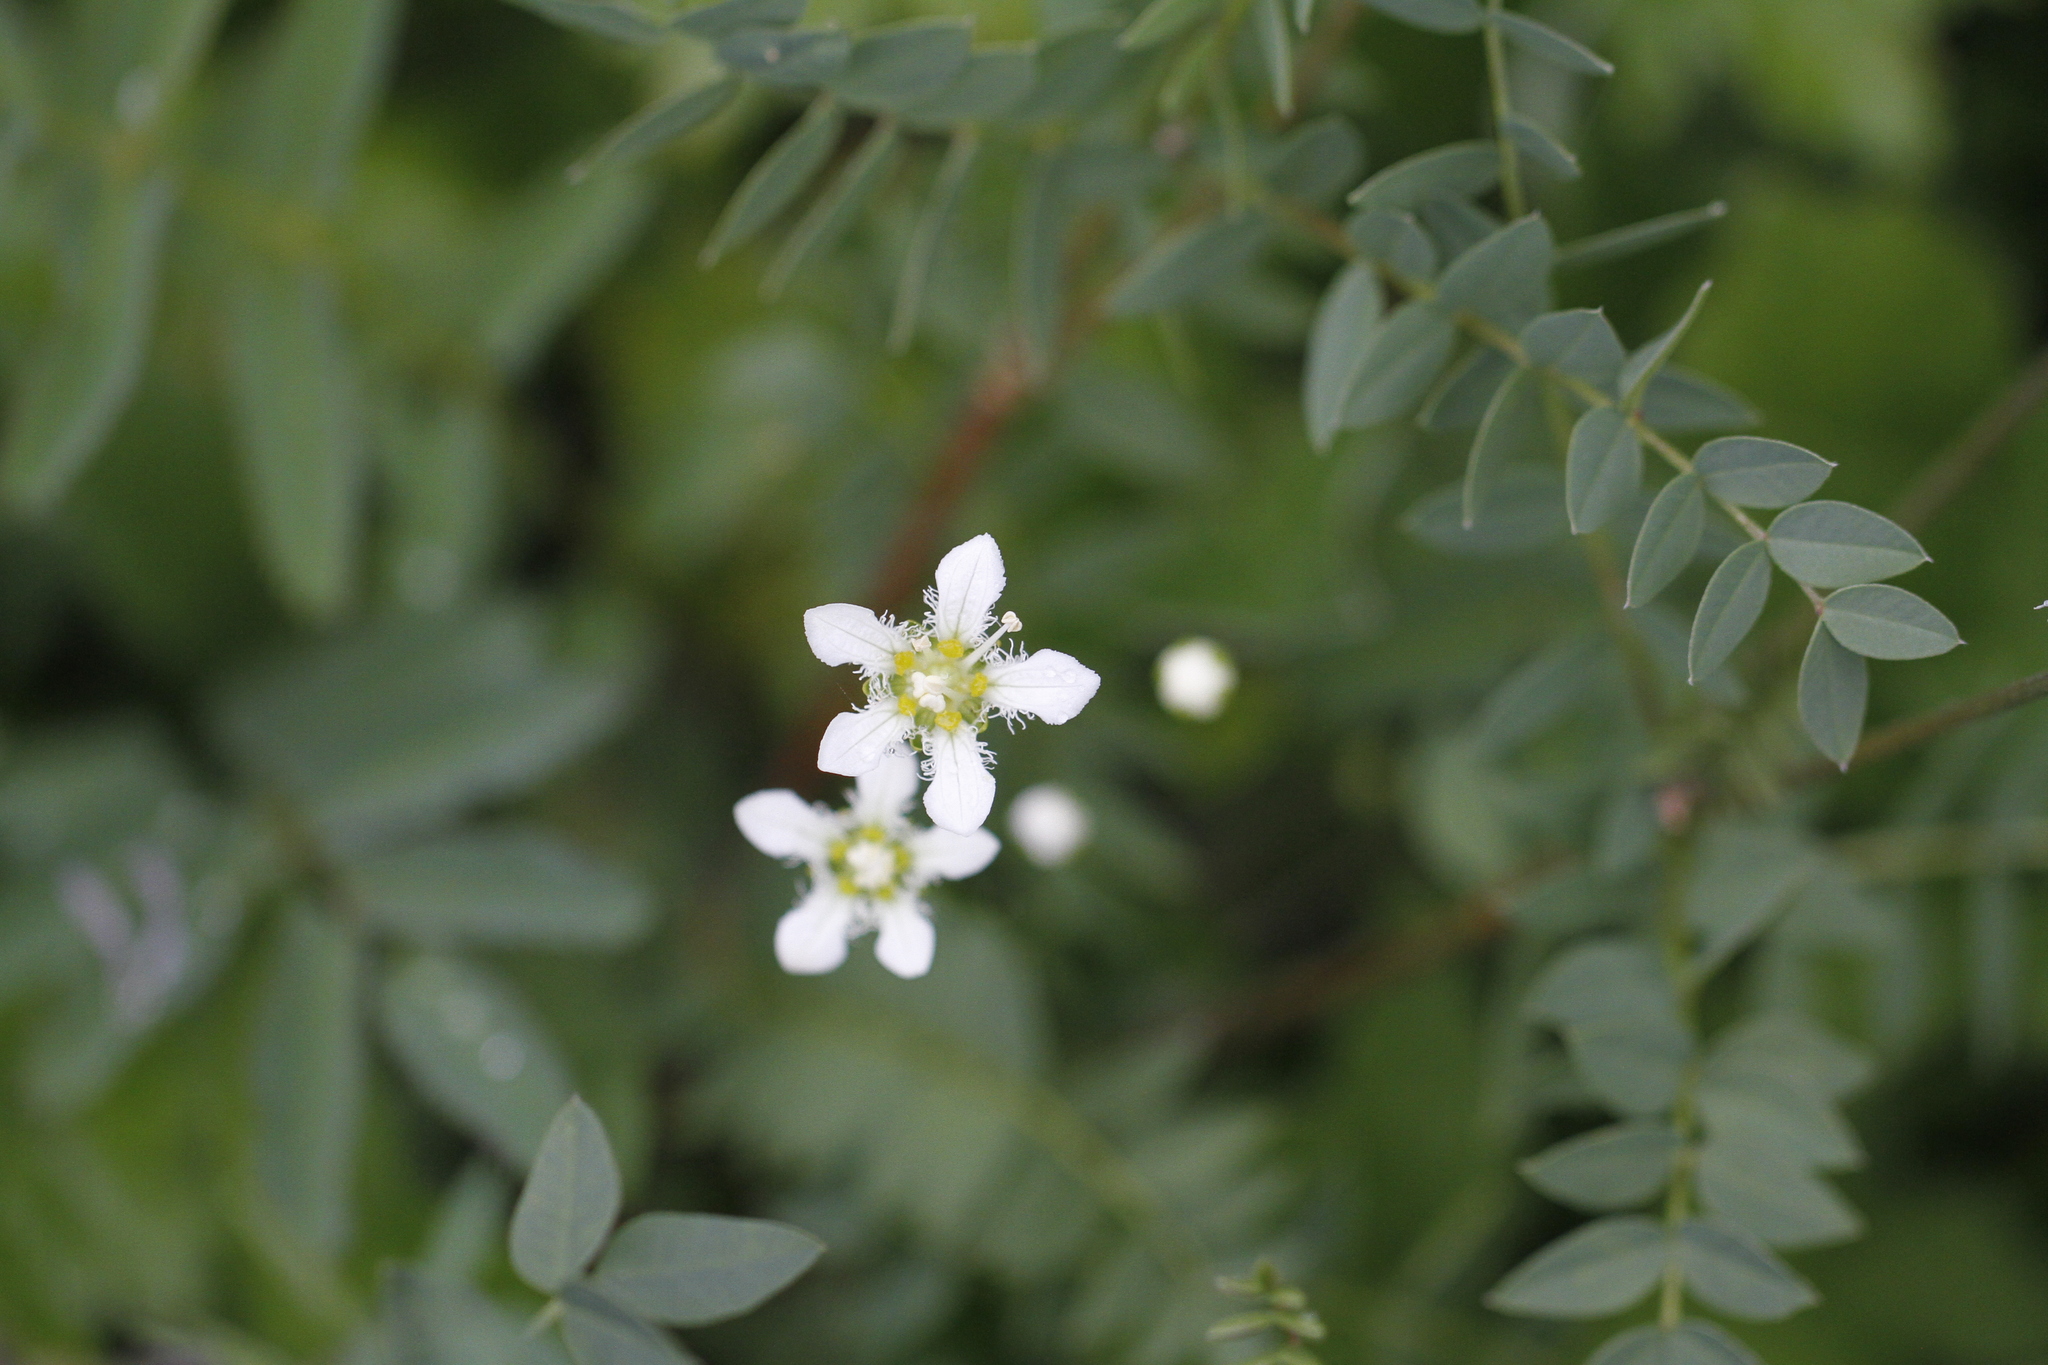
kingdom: Plantae
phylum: Tracheophyta
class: Magnoliopsida
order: Celastrales
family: Parnassiaceae
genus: Parnassia
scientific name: Parnassia fimbriata
